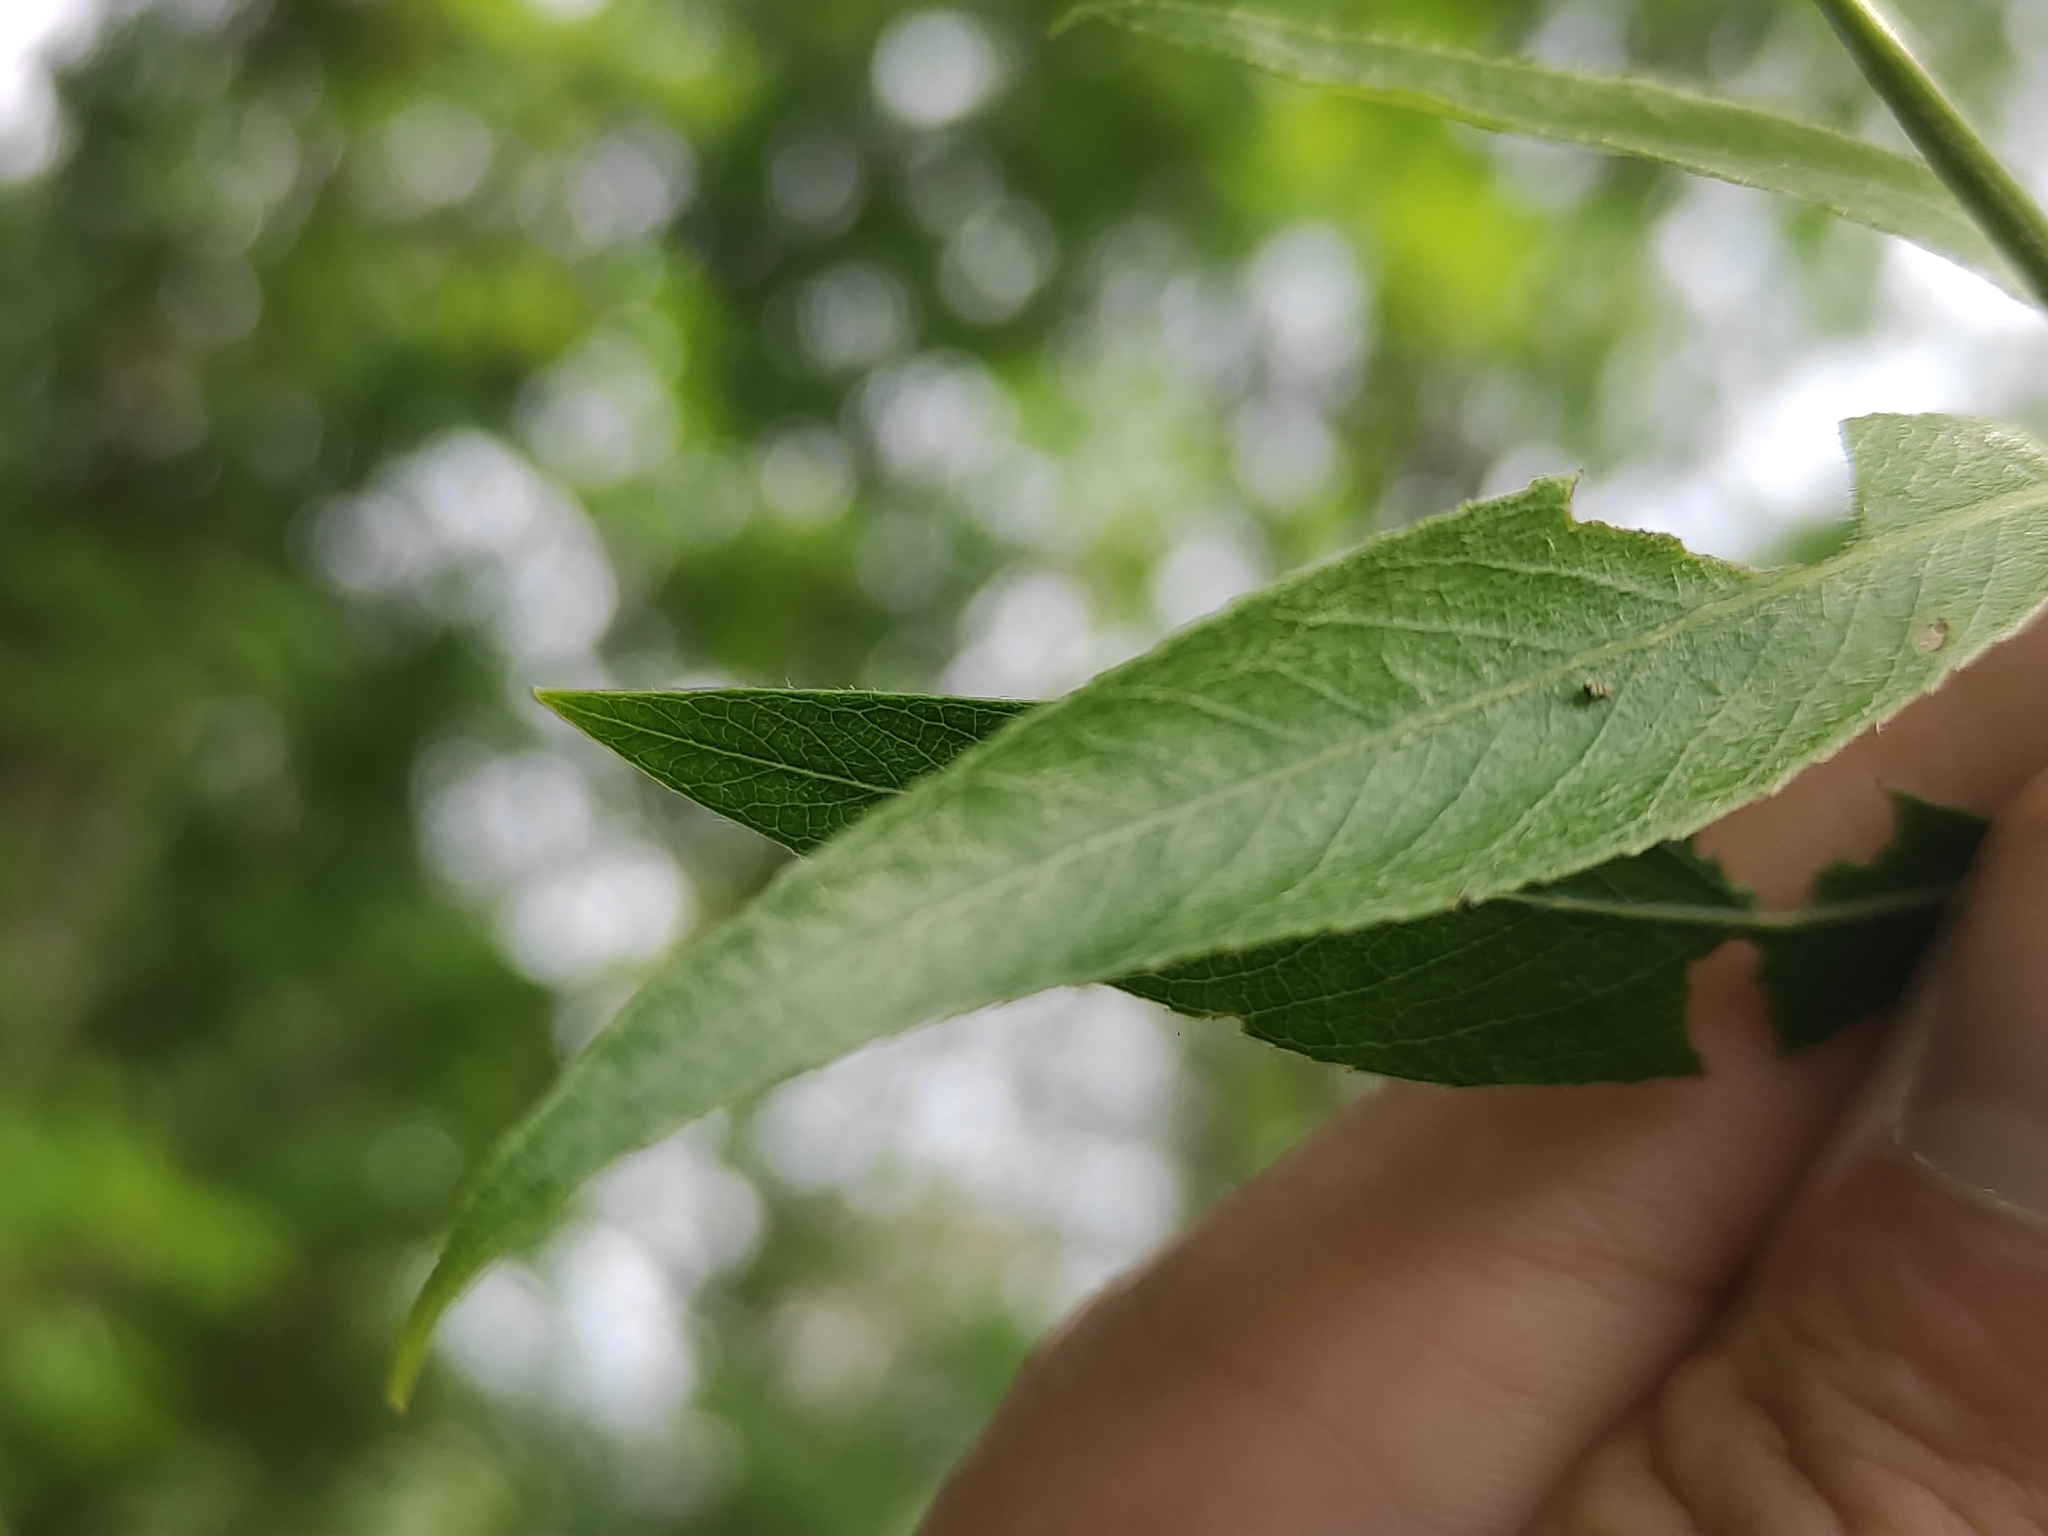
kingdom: Plantae
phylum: Tracheophyta
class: Magnoliopsida
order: Malpighiales
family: Salicaceae
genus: Salix
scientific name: Salix alba
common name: White willow
